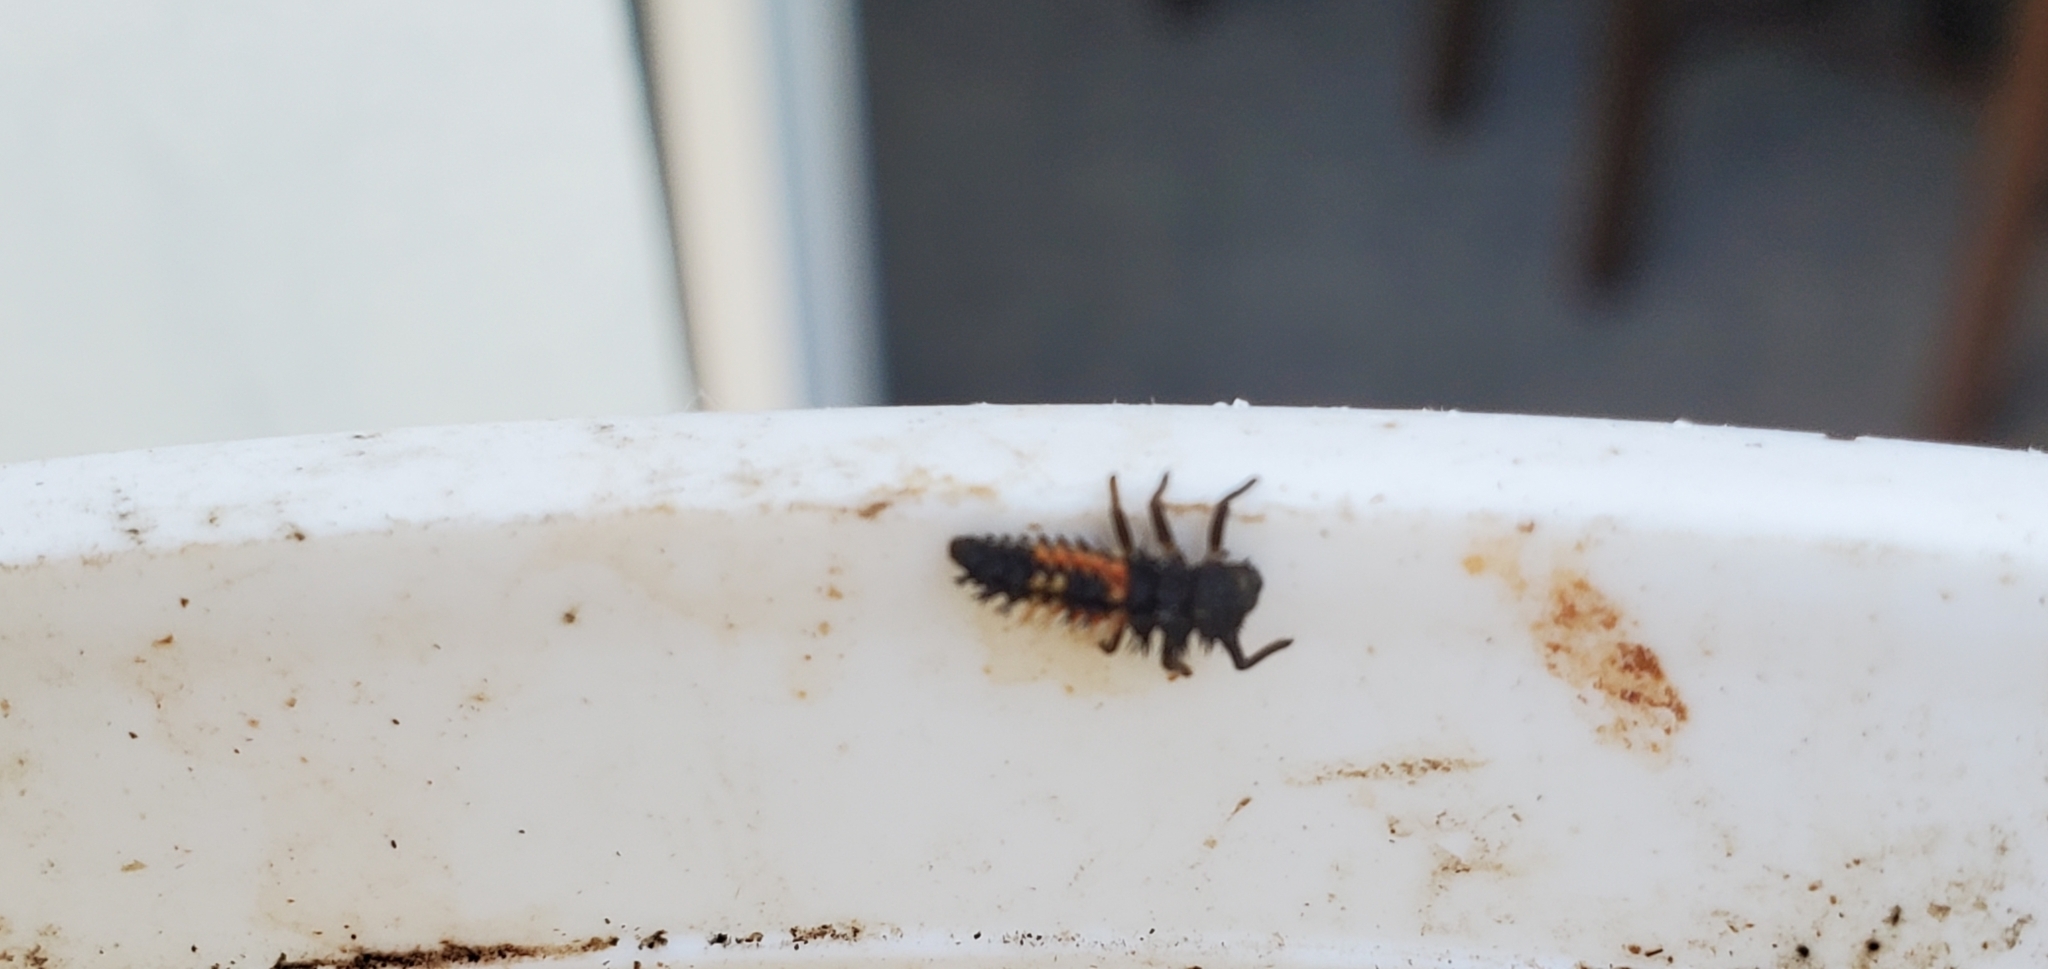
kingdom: Animalia
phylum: Arthropoda
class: Insecta
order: Coleoptera
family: Coccinellidae
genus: Harmonia
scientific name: Harmonia axyridis
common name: Harlequin ladybird
